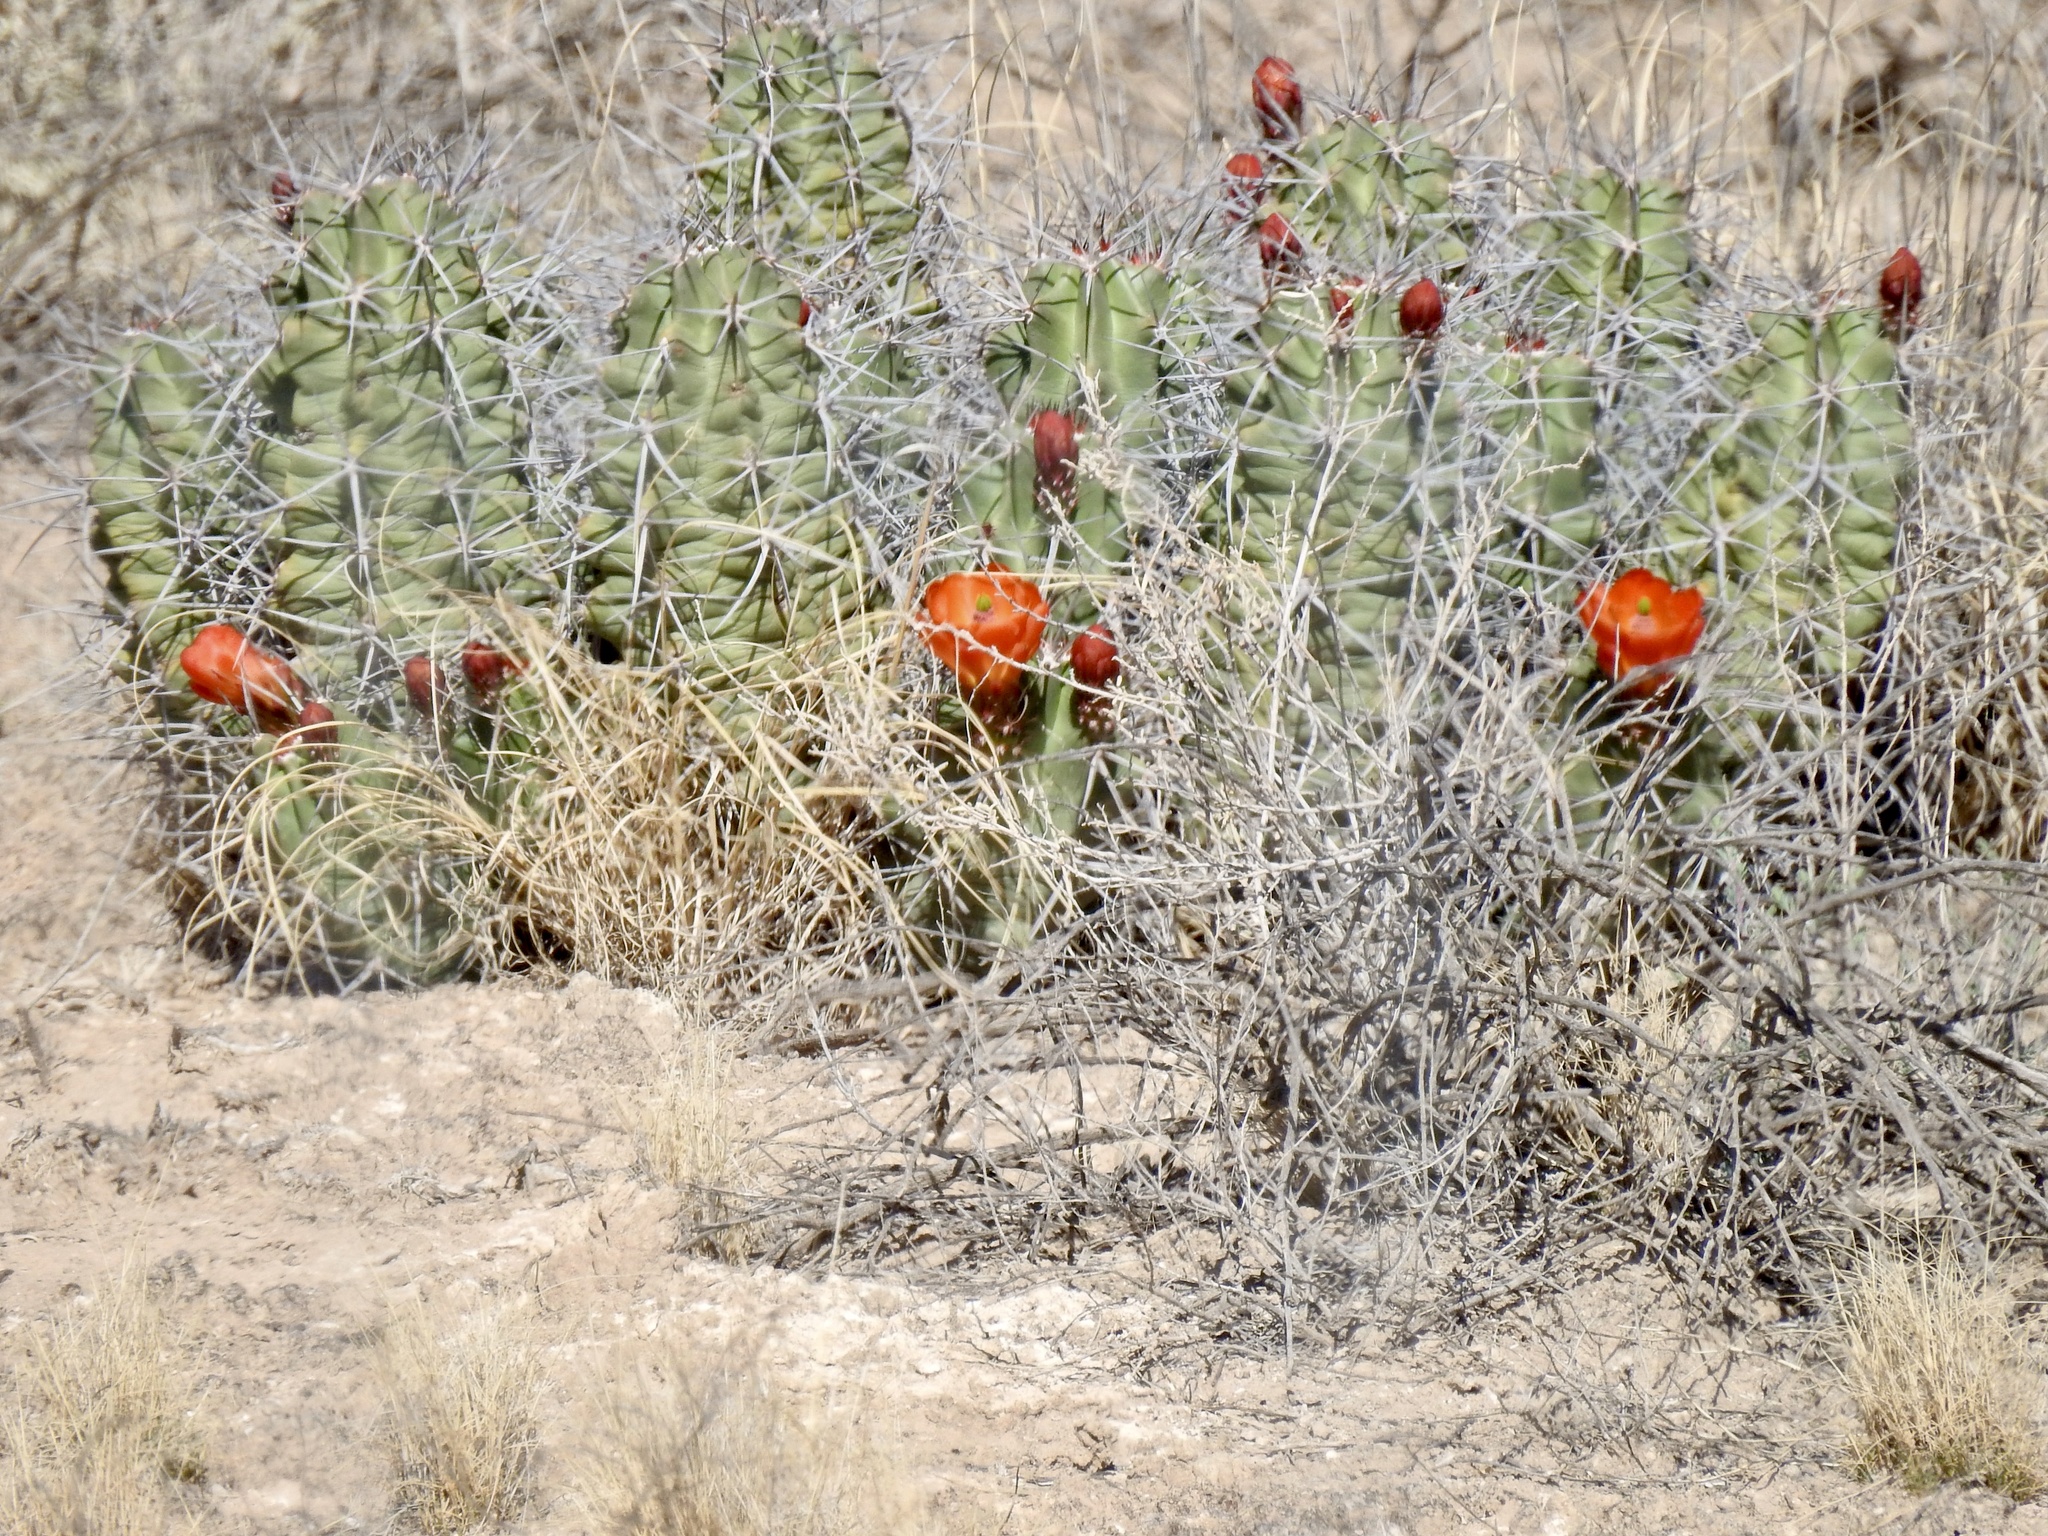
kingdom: Plantae
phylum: Tracheophyta
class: Magnoliopsida
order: Caryophyllales
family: Cactaceae
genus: Echinocereus
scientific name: Echinocereus triglochidiatus
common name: Claretcup hedgehog
